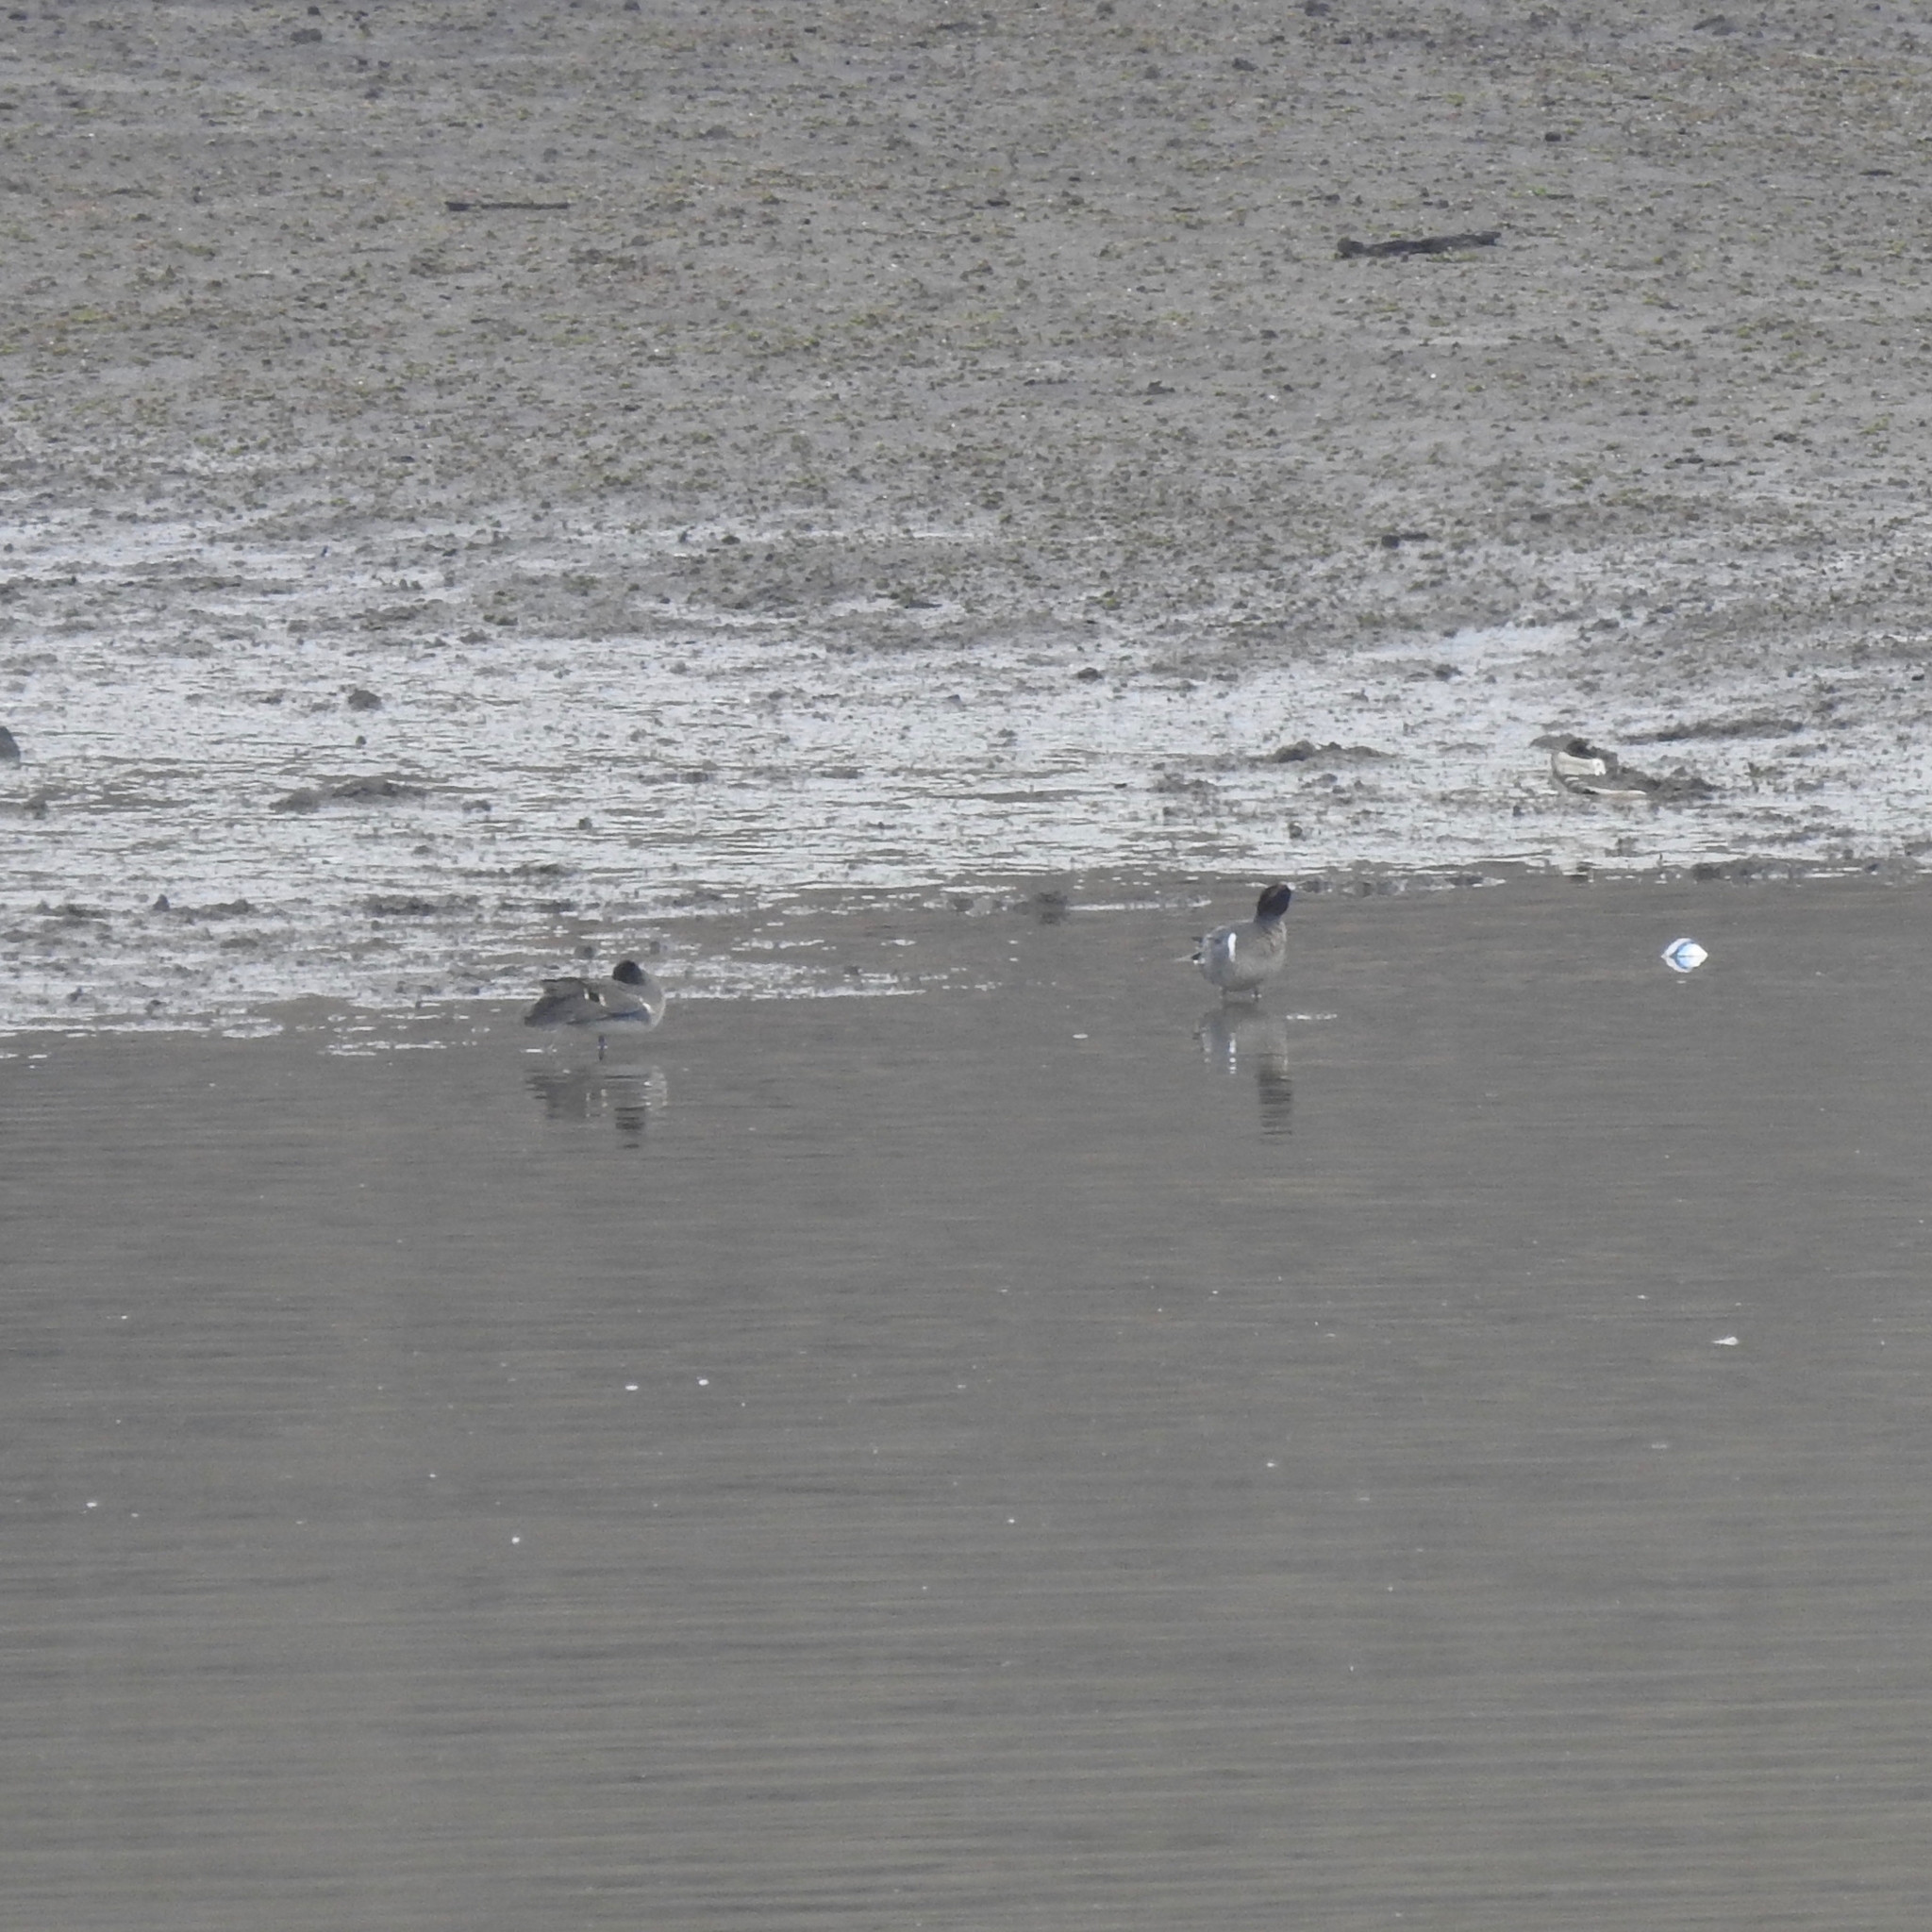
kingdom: Animalia
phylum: Chordata
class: Aves
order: Anseriformes
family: Anatidae
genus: Anas
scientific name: Anas crecca
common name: Eurasian teal
